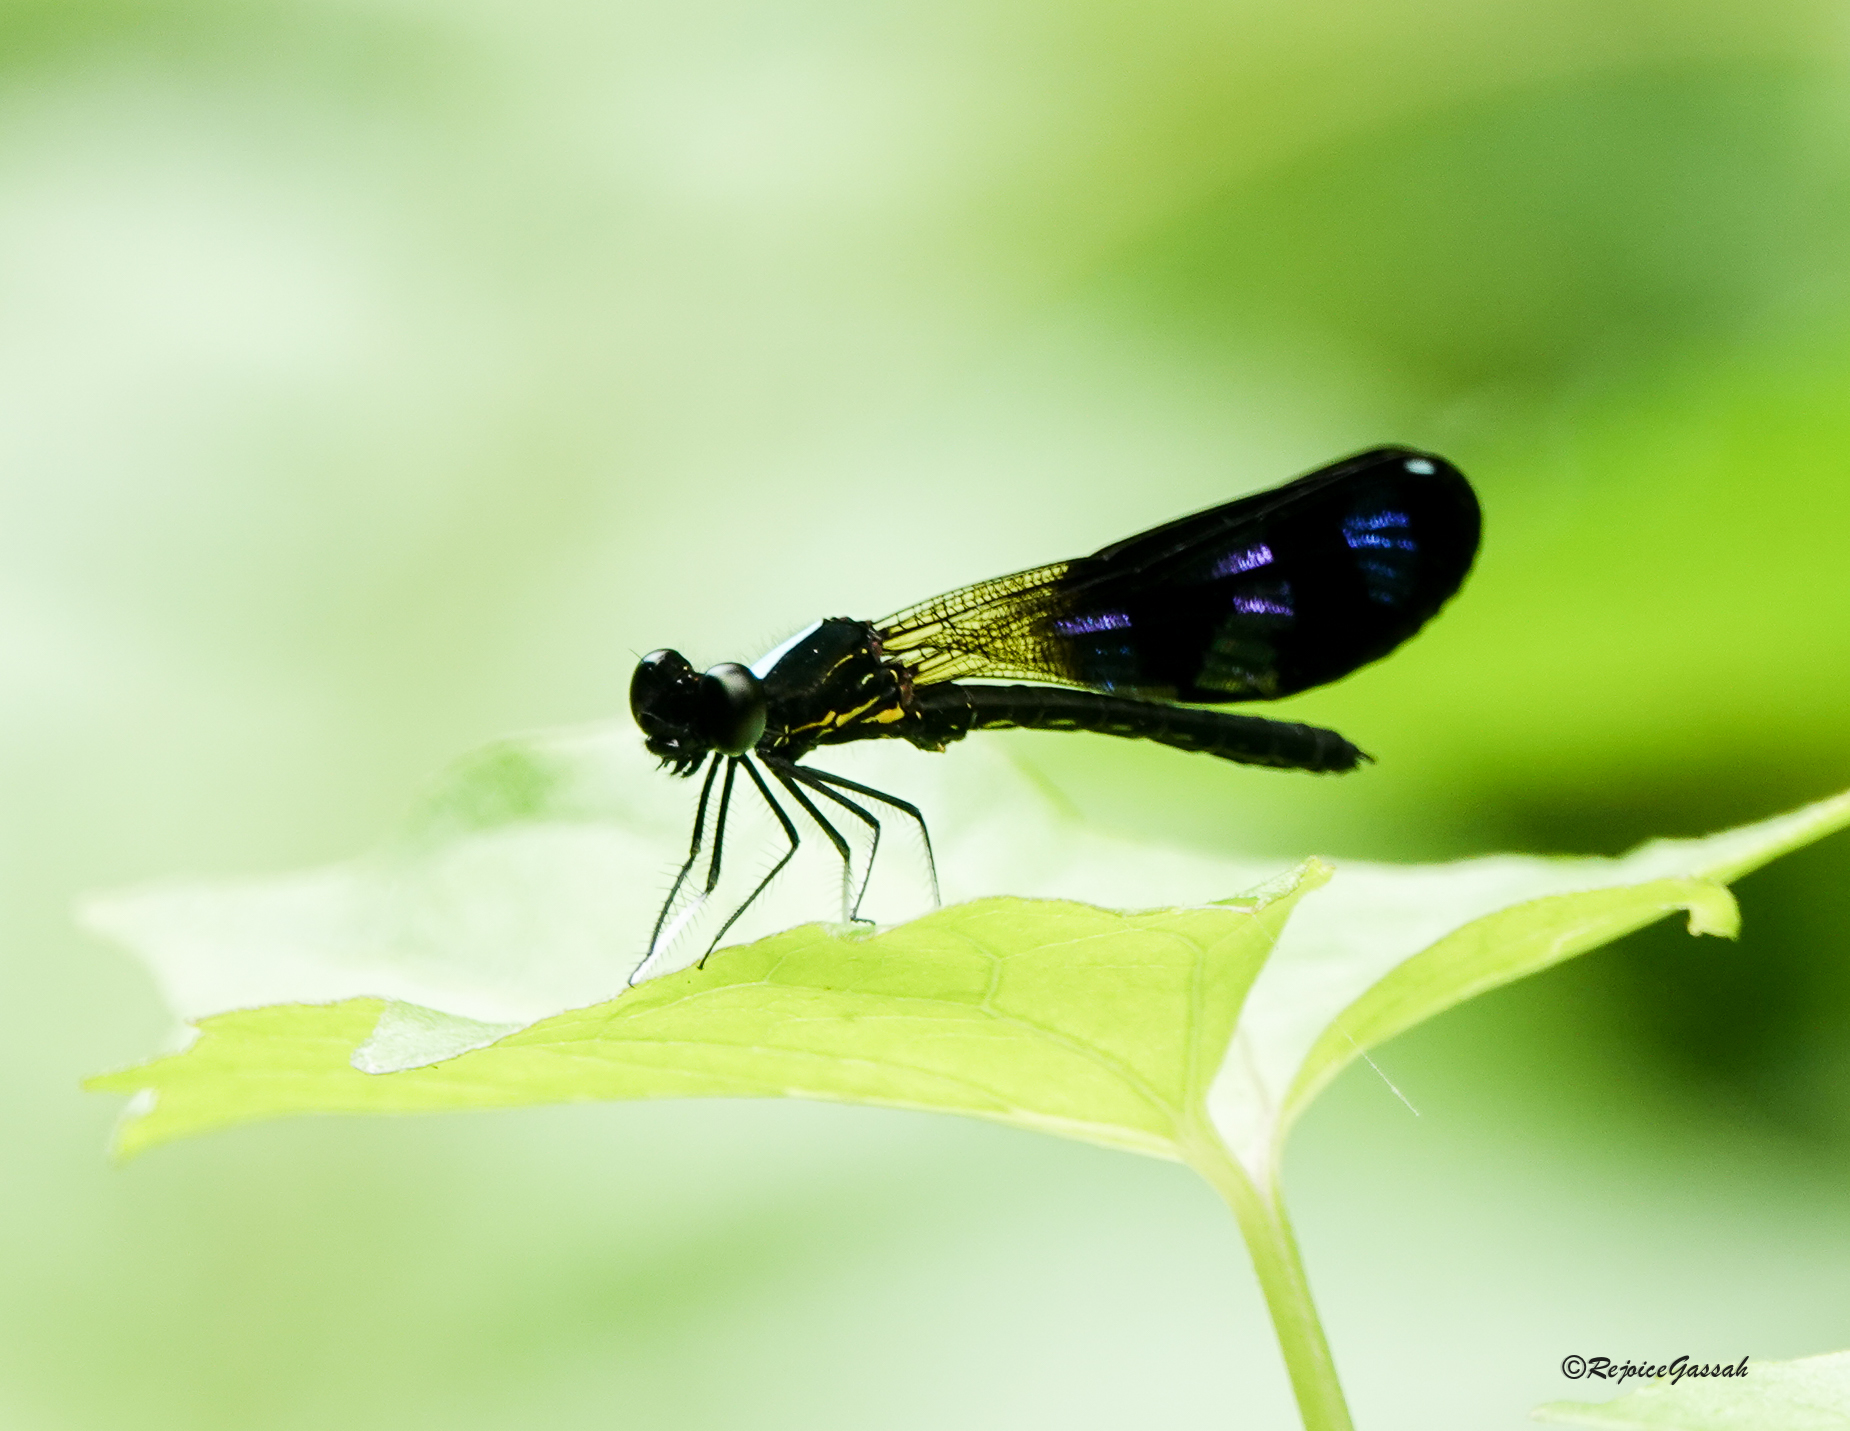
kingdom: Animalia
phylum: Arthropoda
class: Insecta
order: Odonata
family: Chlorocyphidae
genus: Aristocypha
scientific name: Aristocypha quadrimaculata
